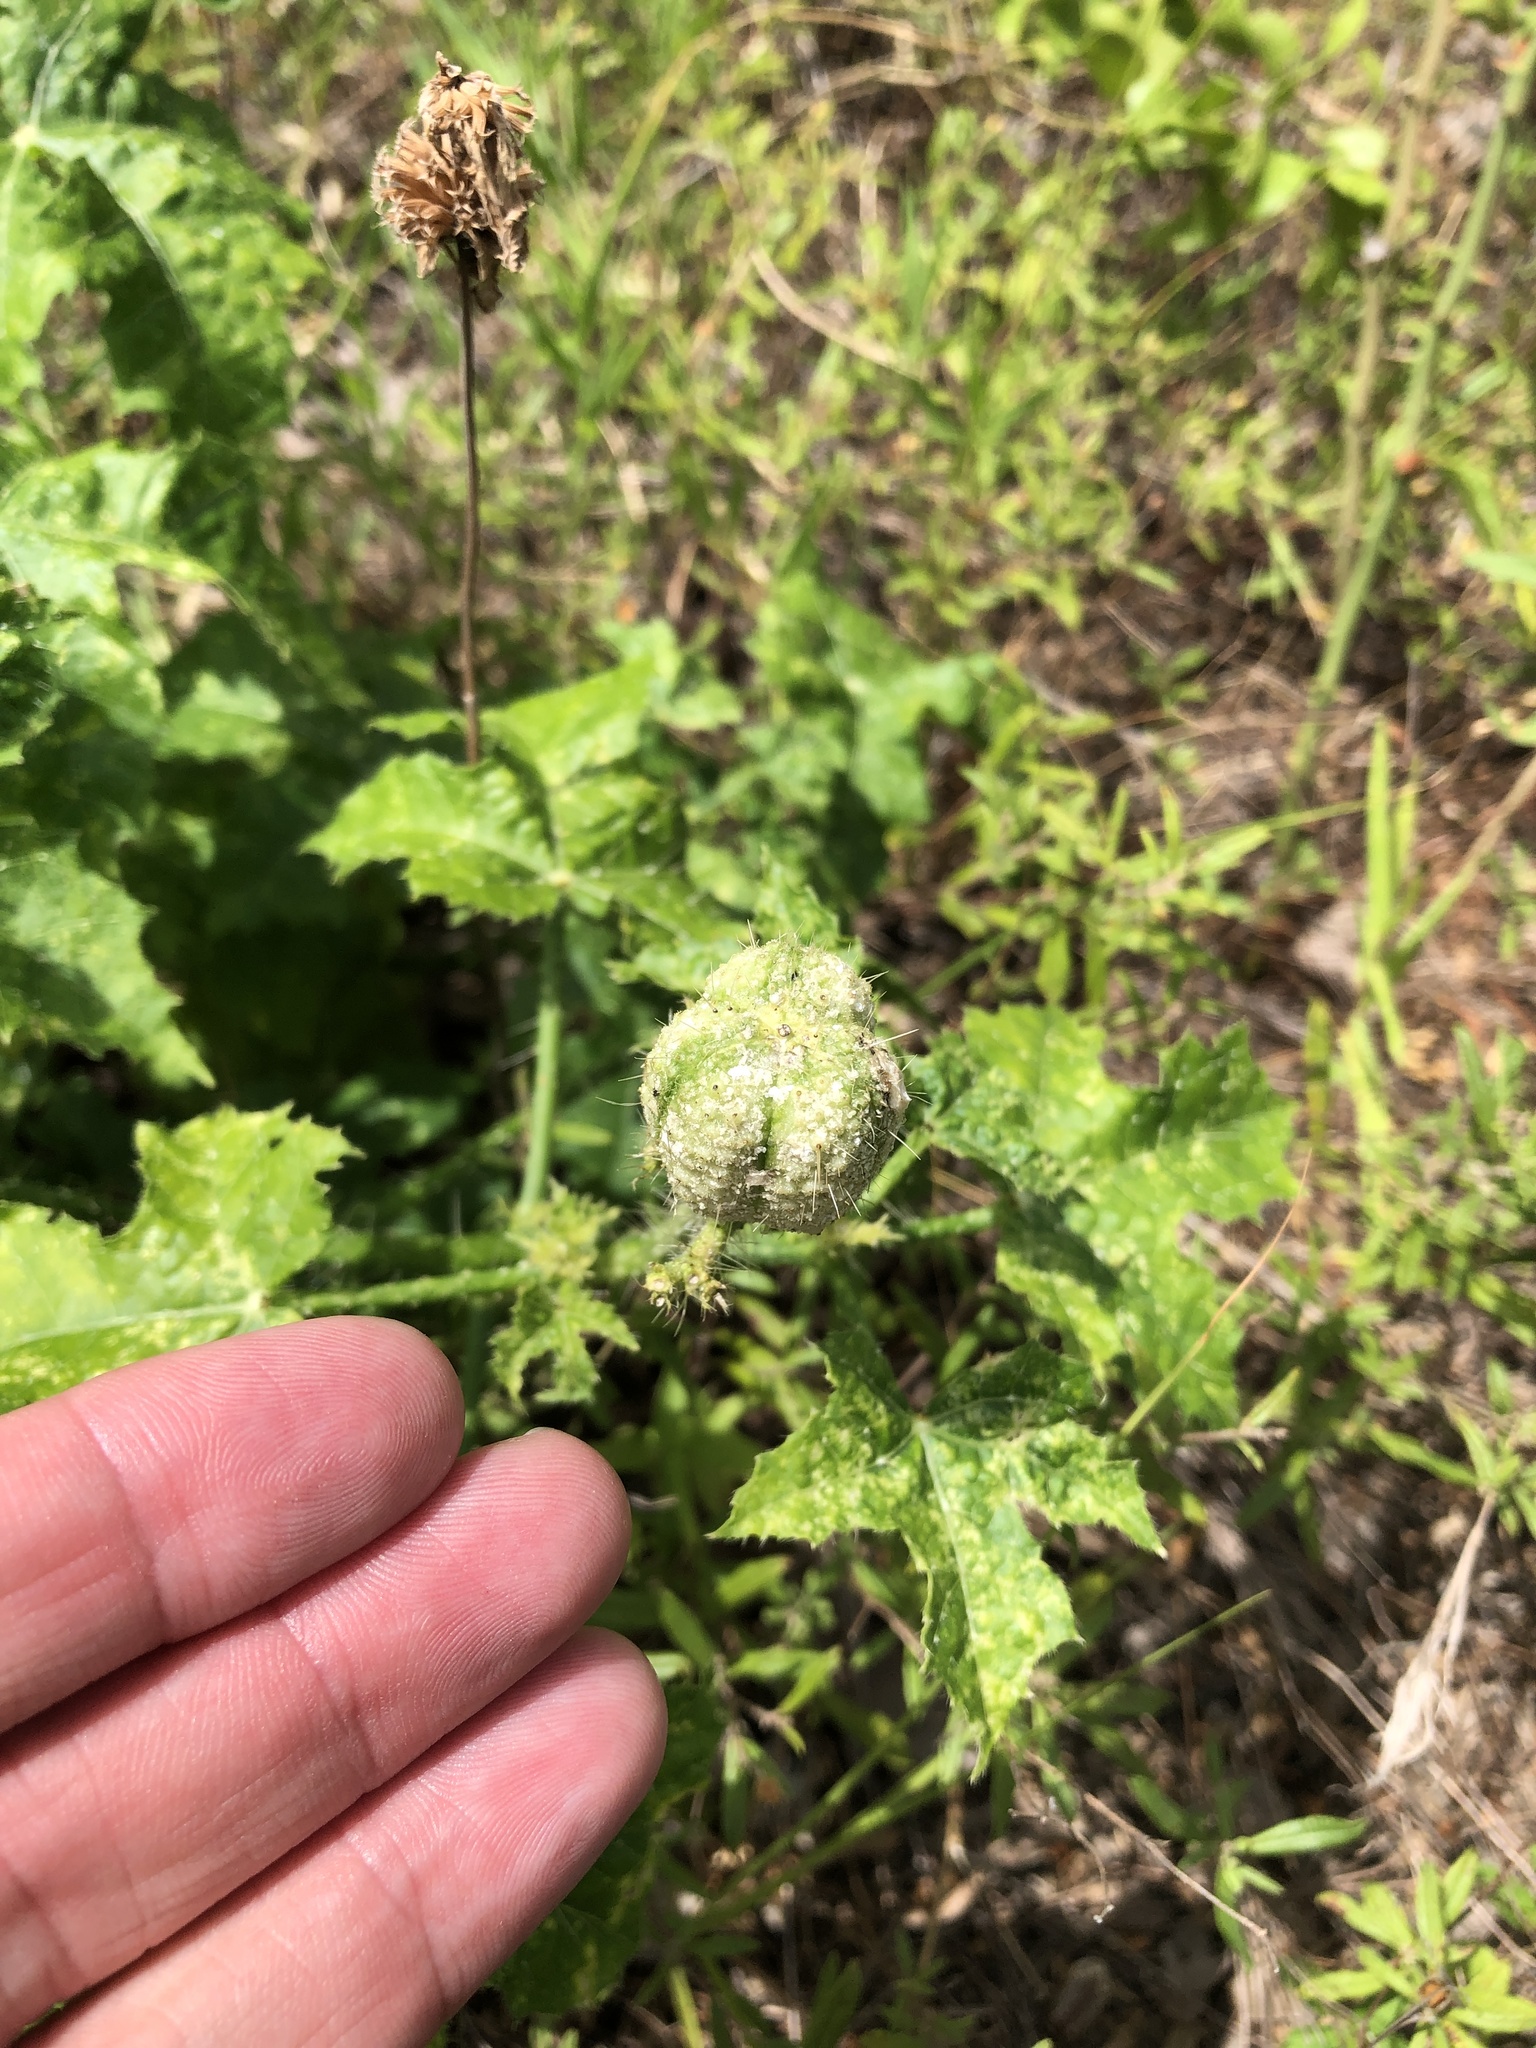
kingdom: Plantae
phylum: Tracheophyta
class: Magnoliopsida
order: Malpighiales
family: Euphorbiaceae
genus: Cnidoscolus
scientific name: Cnidoscolus texanus
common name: Texas bull-nettle
